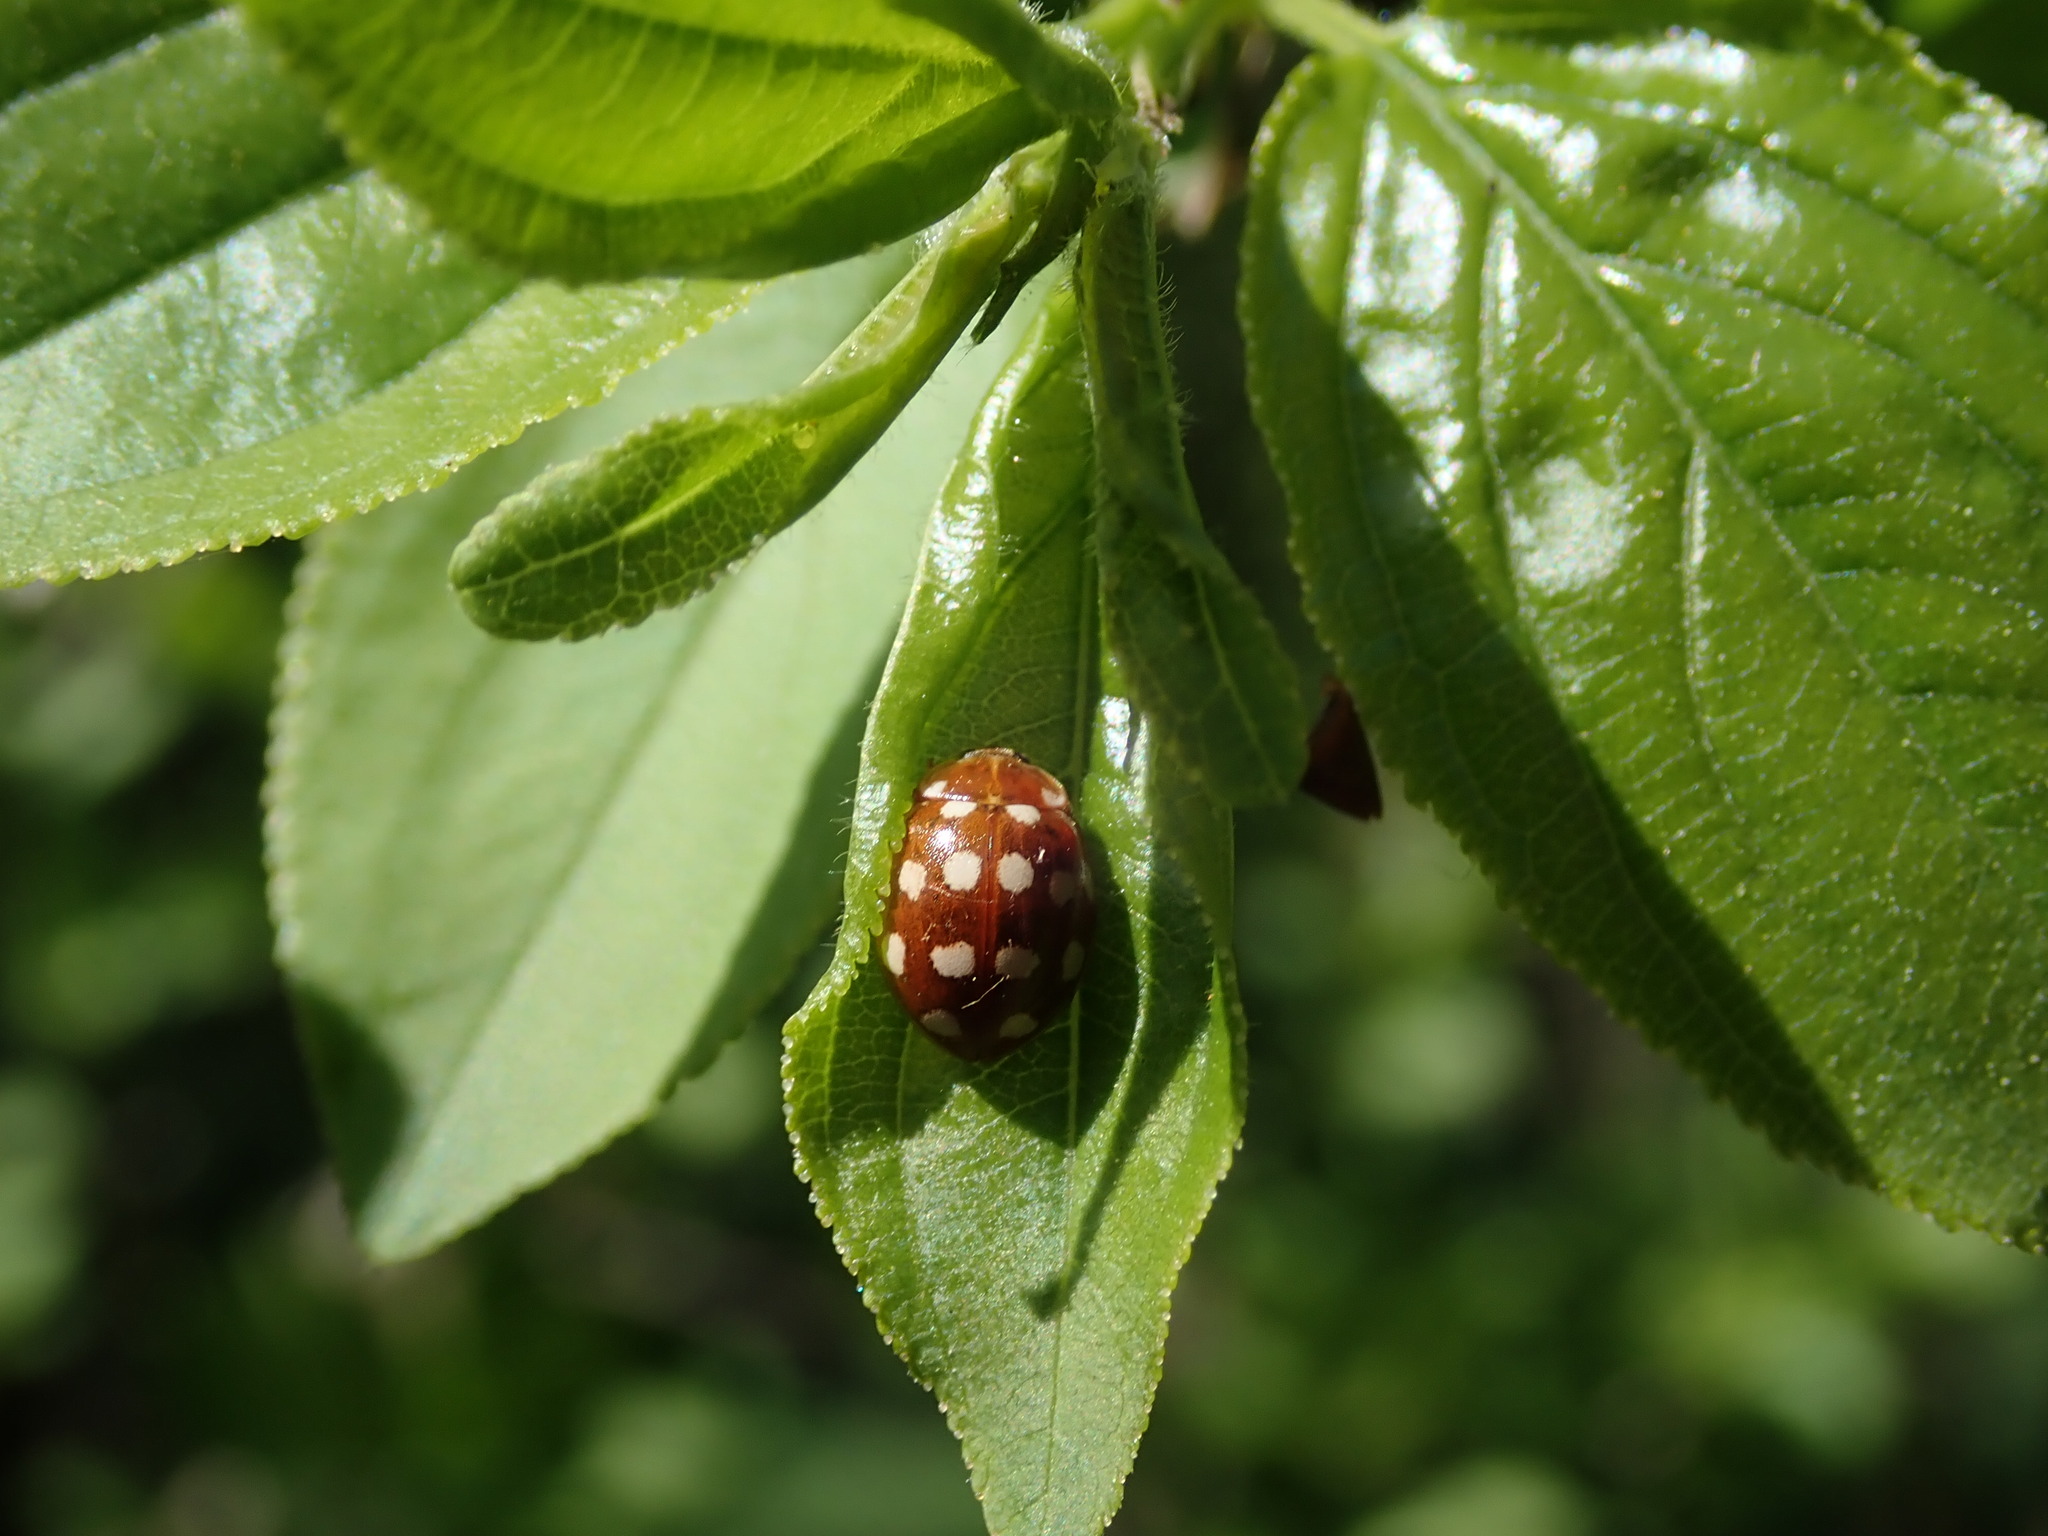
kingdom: Animalia
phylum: Arthropoda
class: Insecta
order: Coleoptera
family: Coccinellidae
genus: Calvia
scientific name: Calvia quatuordecimguttata
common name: Cream-spot ladybird
